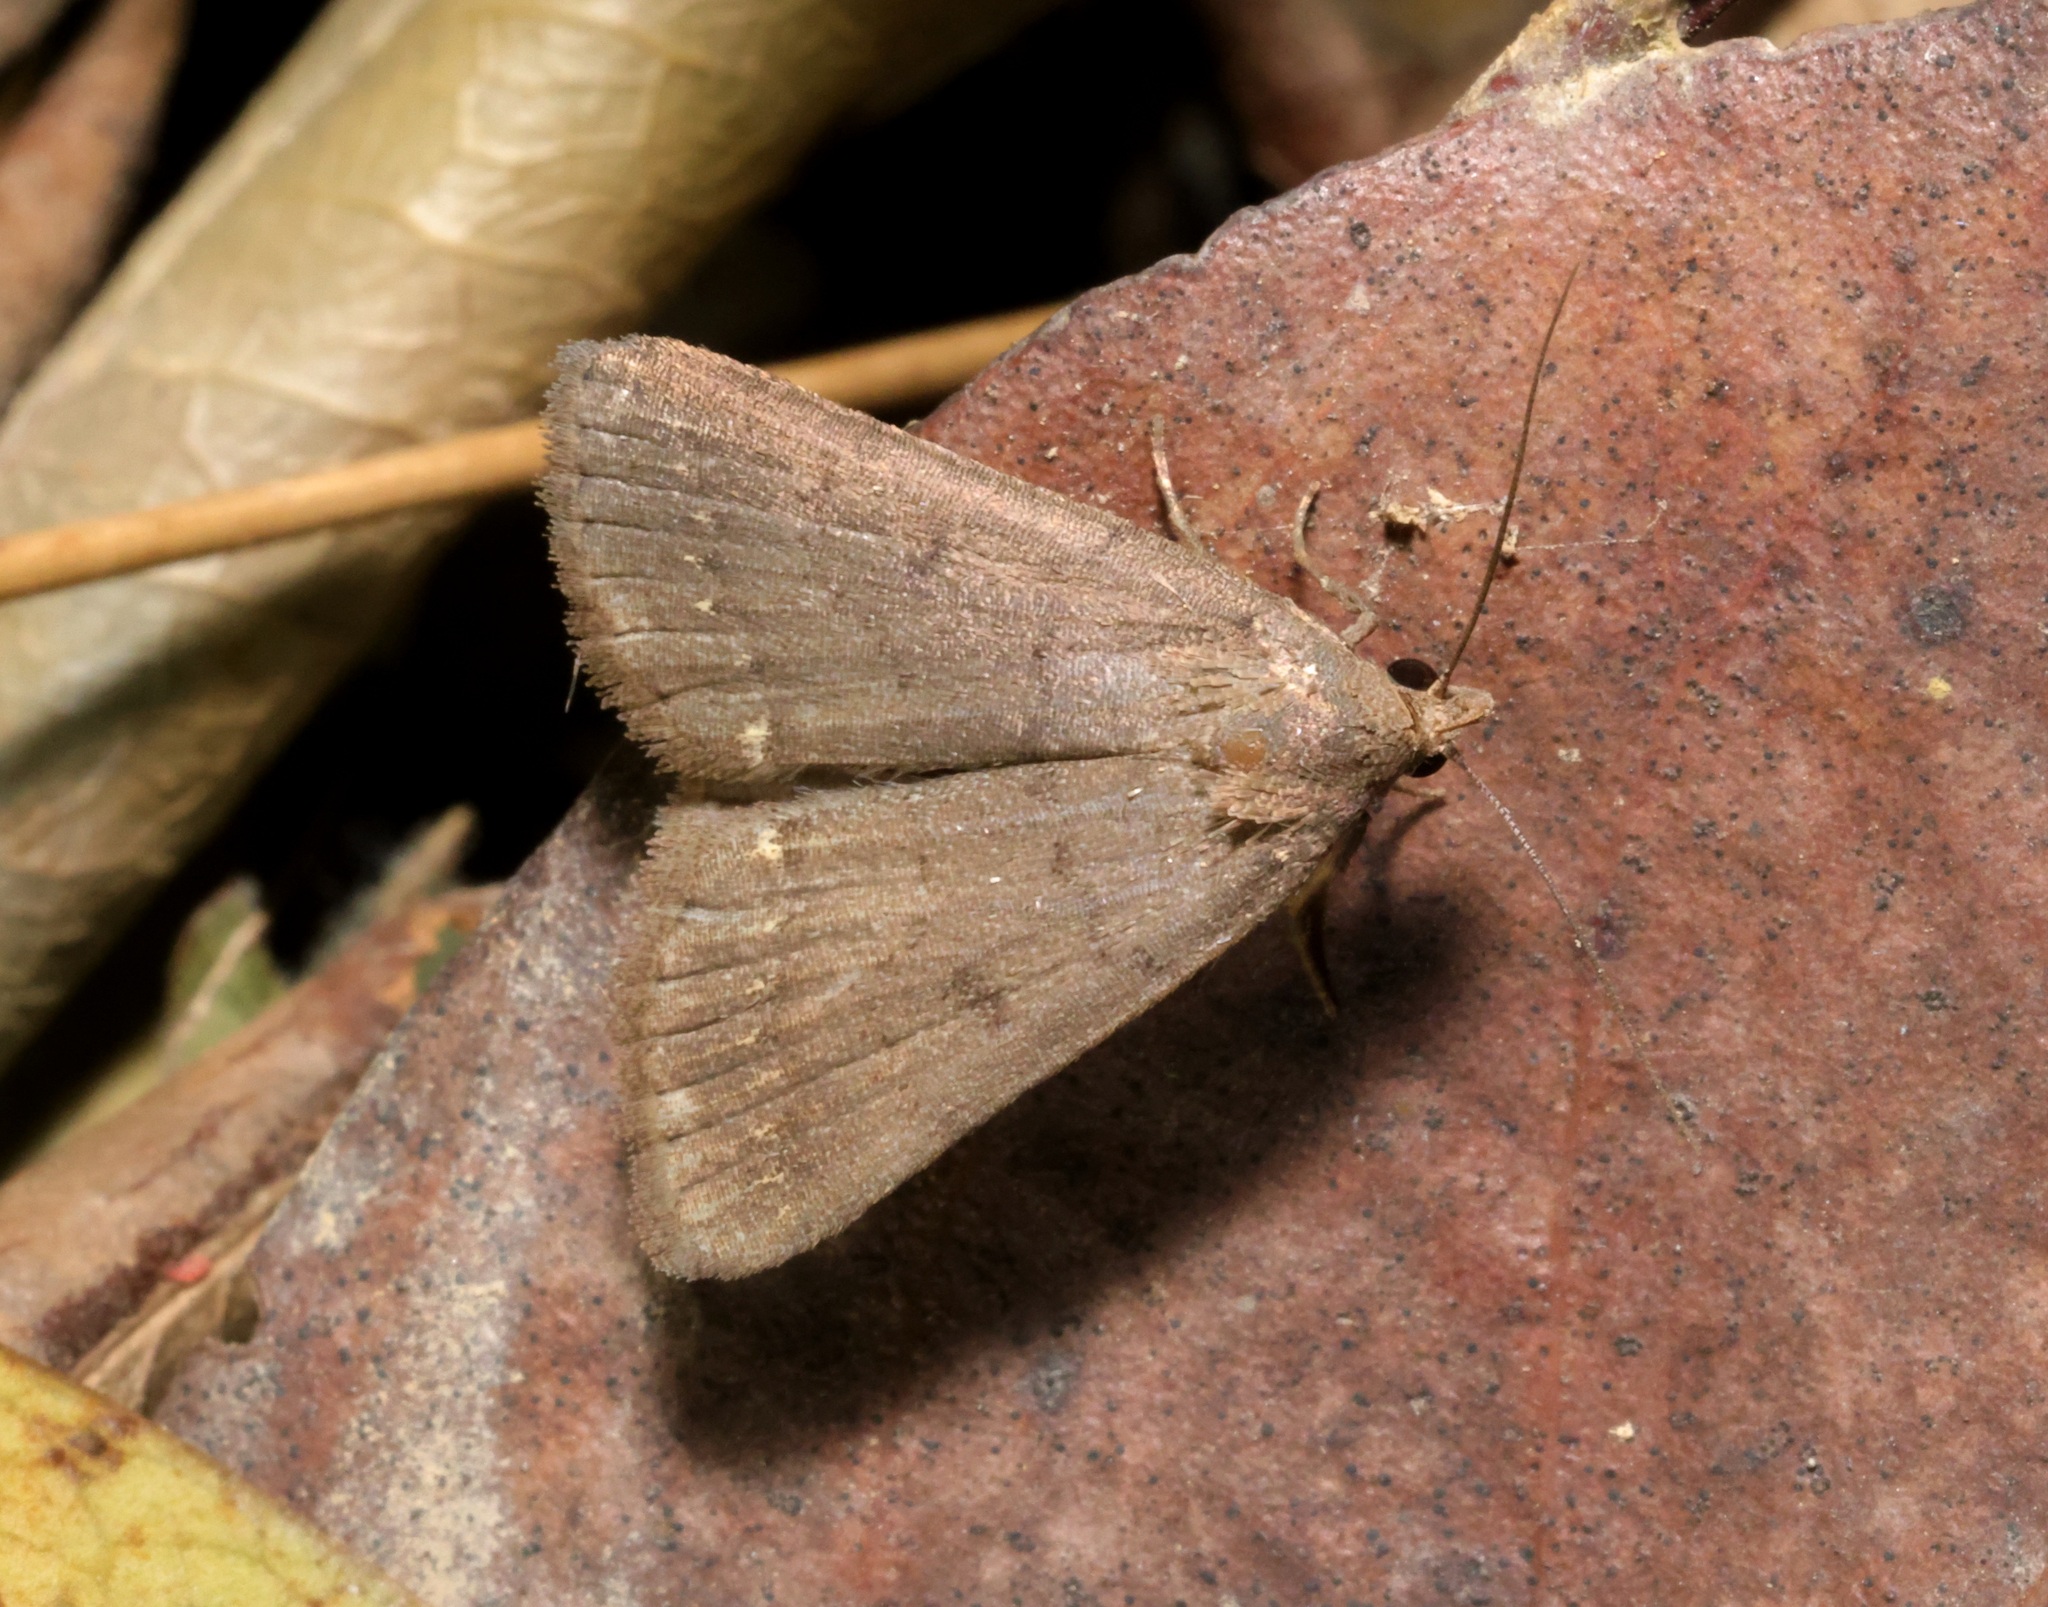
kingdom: Animalia
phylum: Arthropoda
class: Insecta
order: Lepidoptera
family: Erebidae
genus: Nodaria
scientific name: Nodaria externalis
